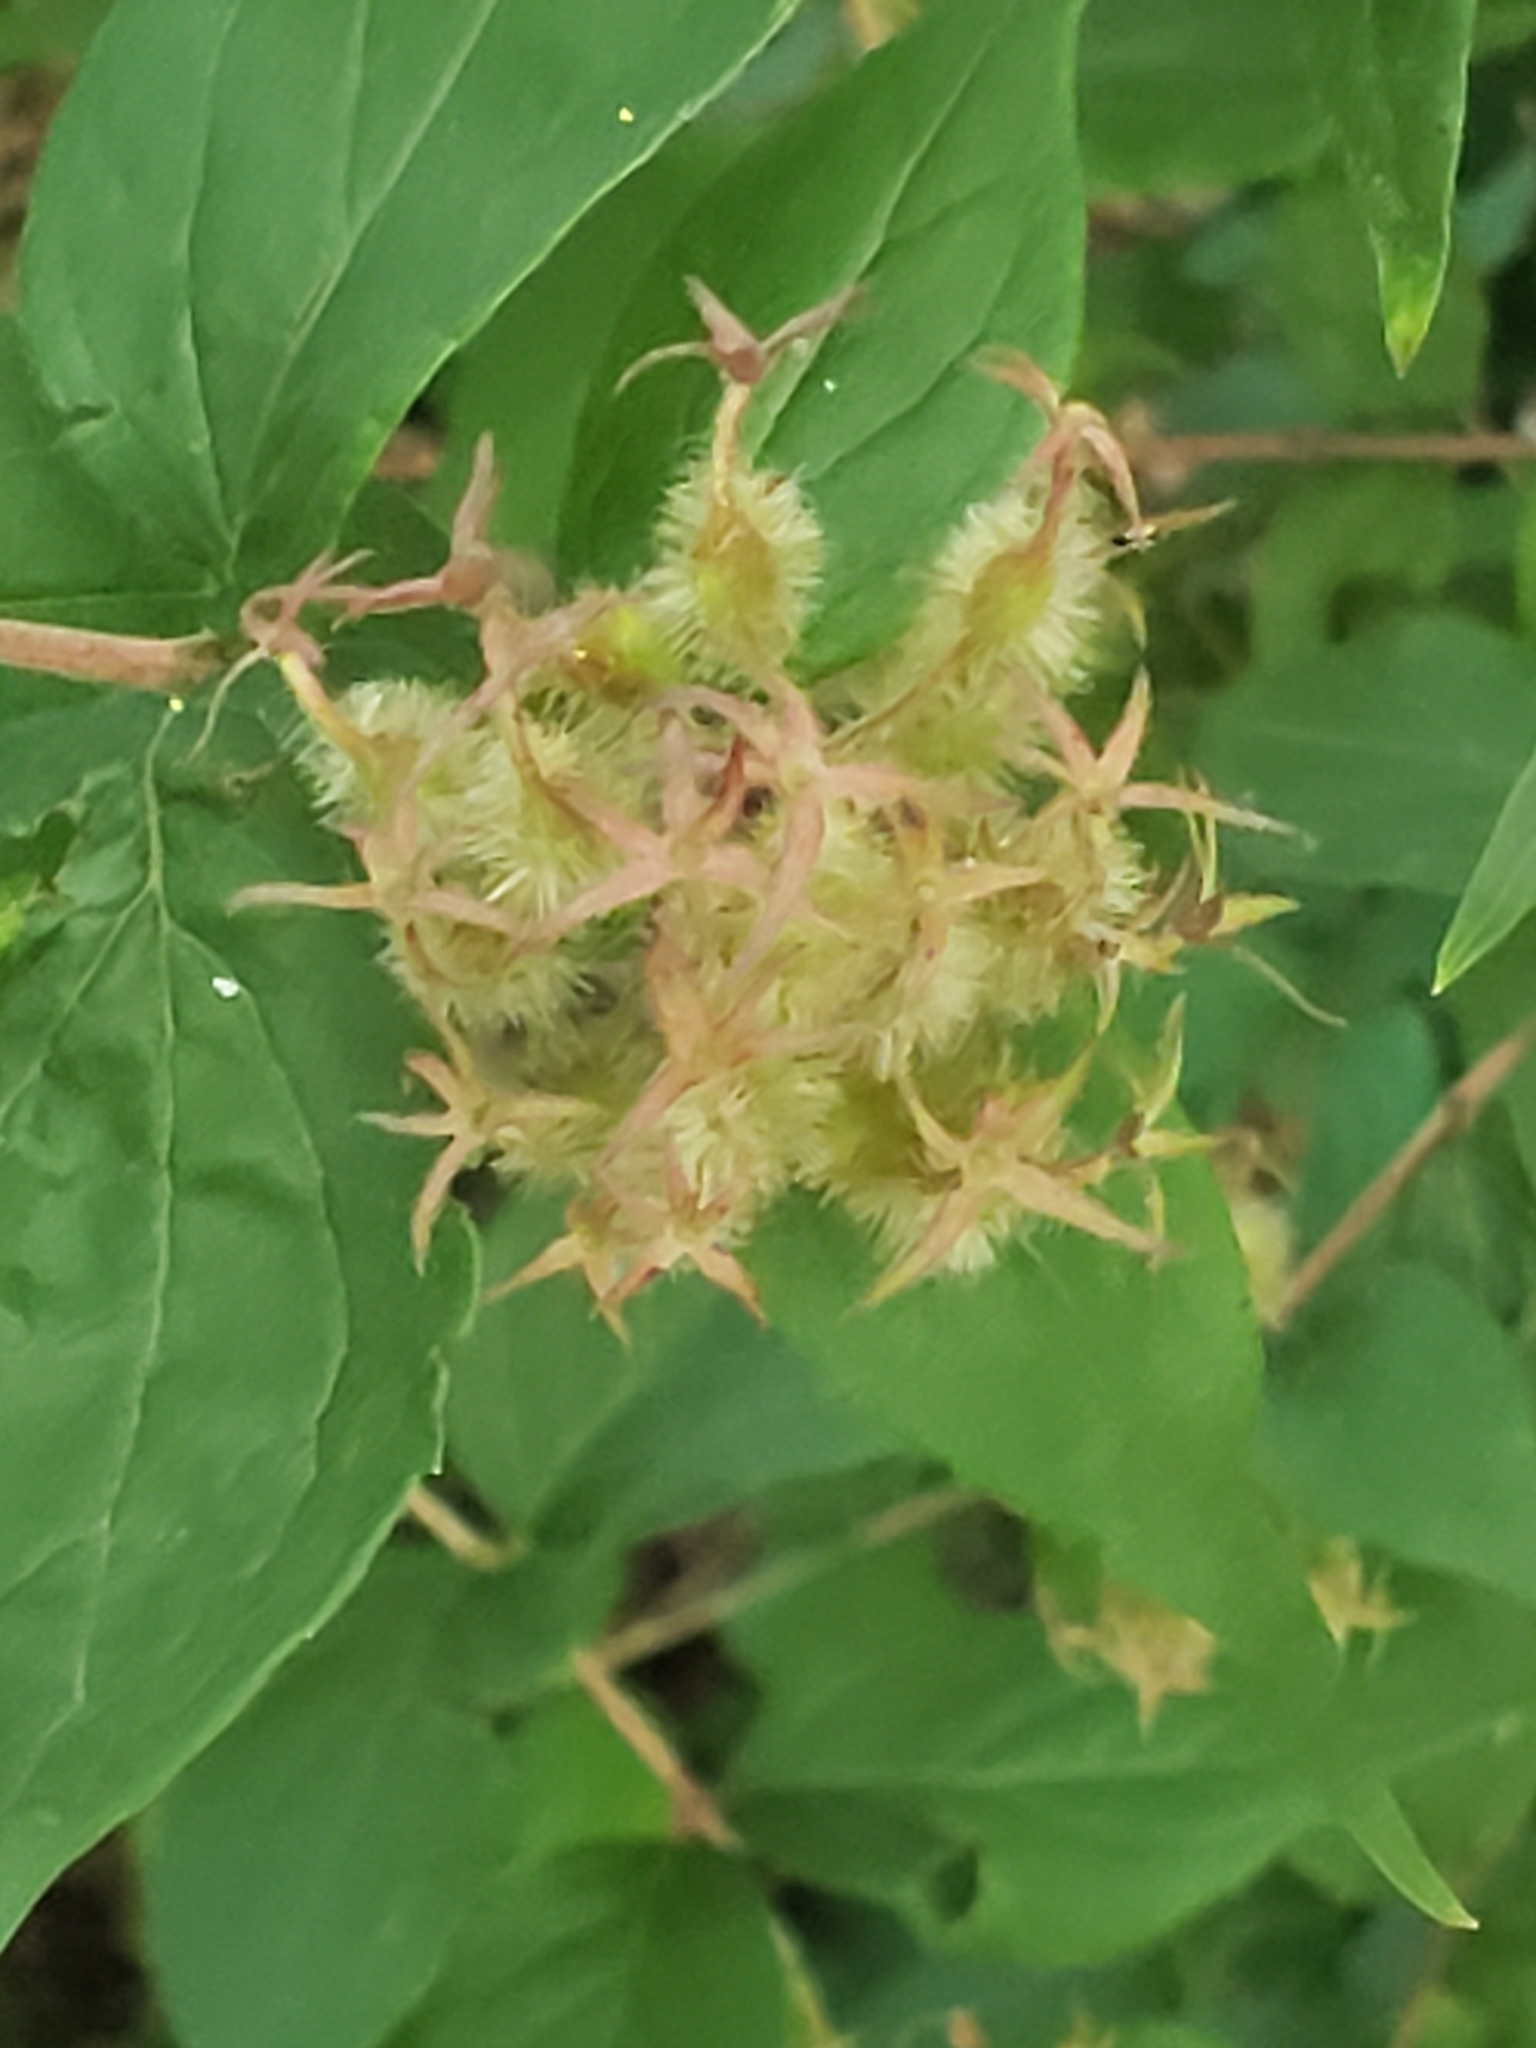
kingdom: Plantae
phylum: Tracheophyta
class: Magnoliopsida
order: Dipsacales
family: Caprifoliaceae
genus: Kolkwitzia
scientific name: Kolkwitzia amabilis
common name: Beautybush
